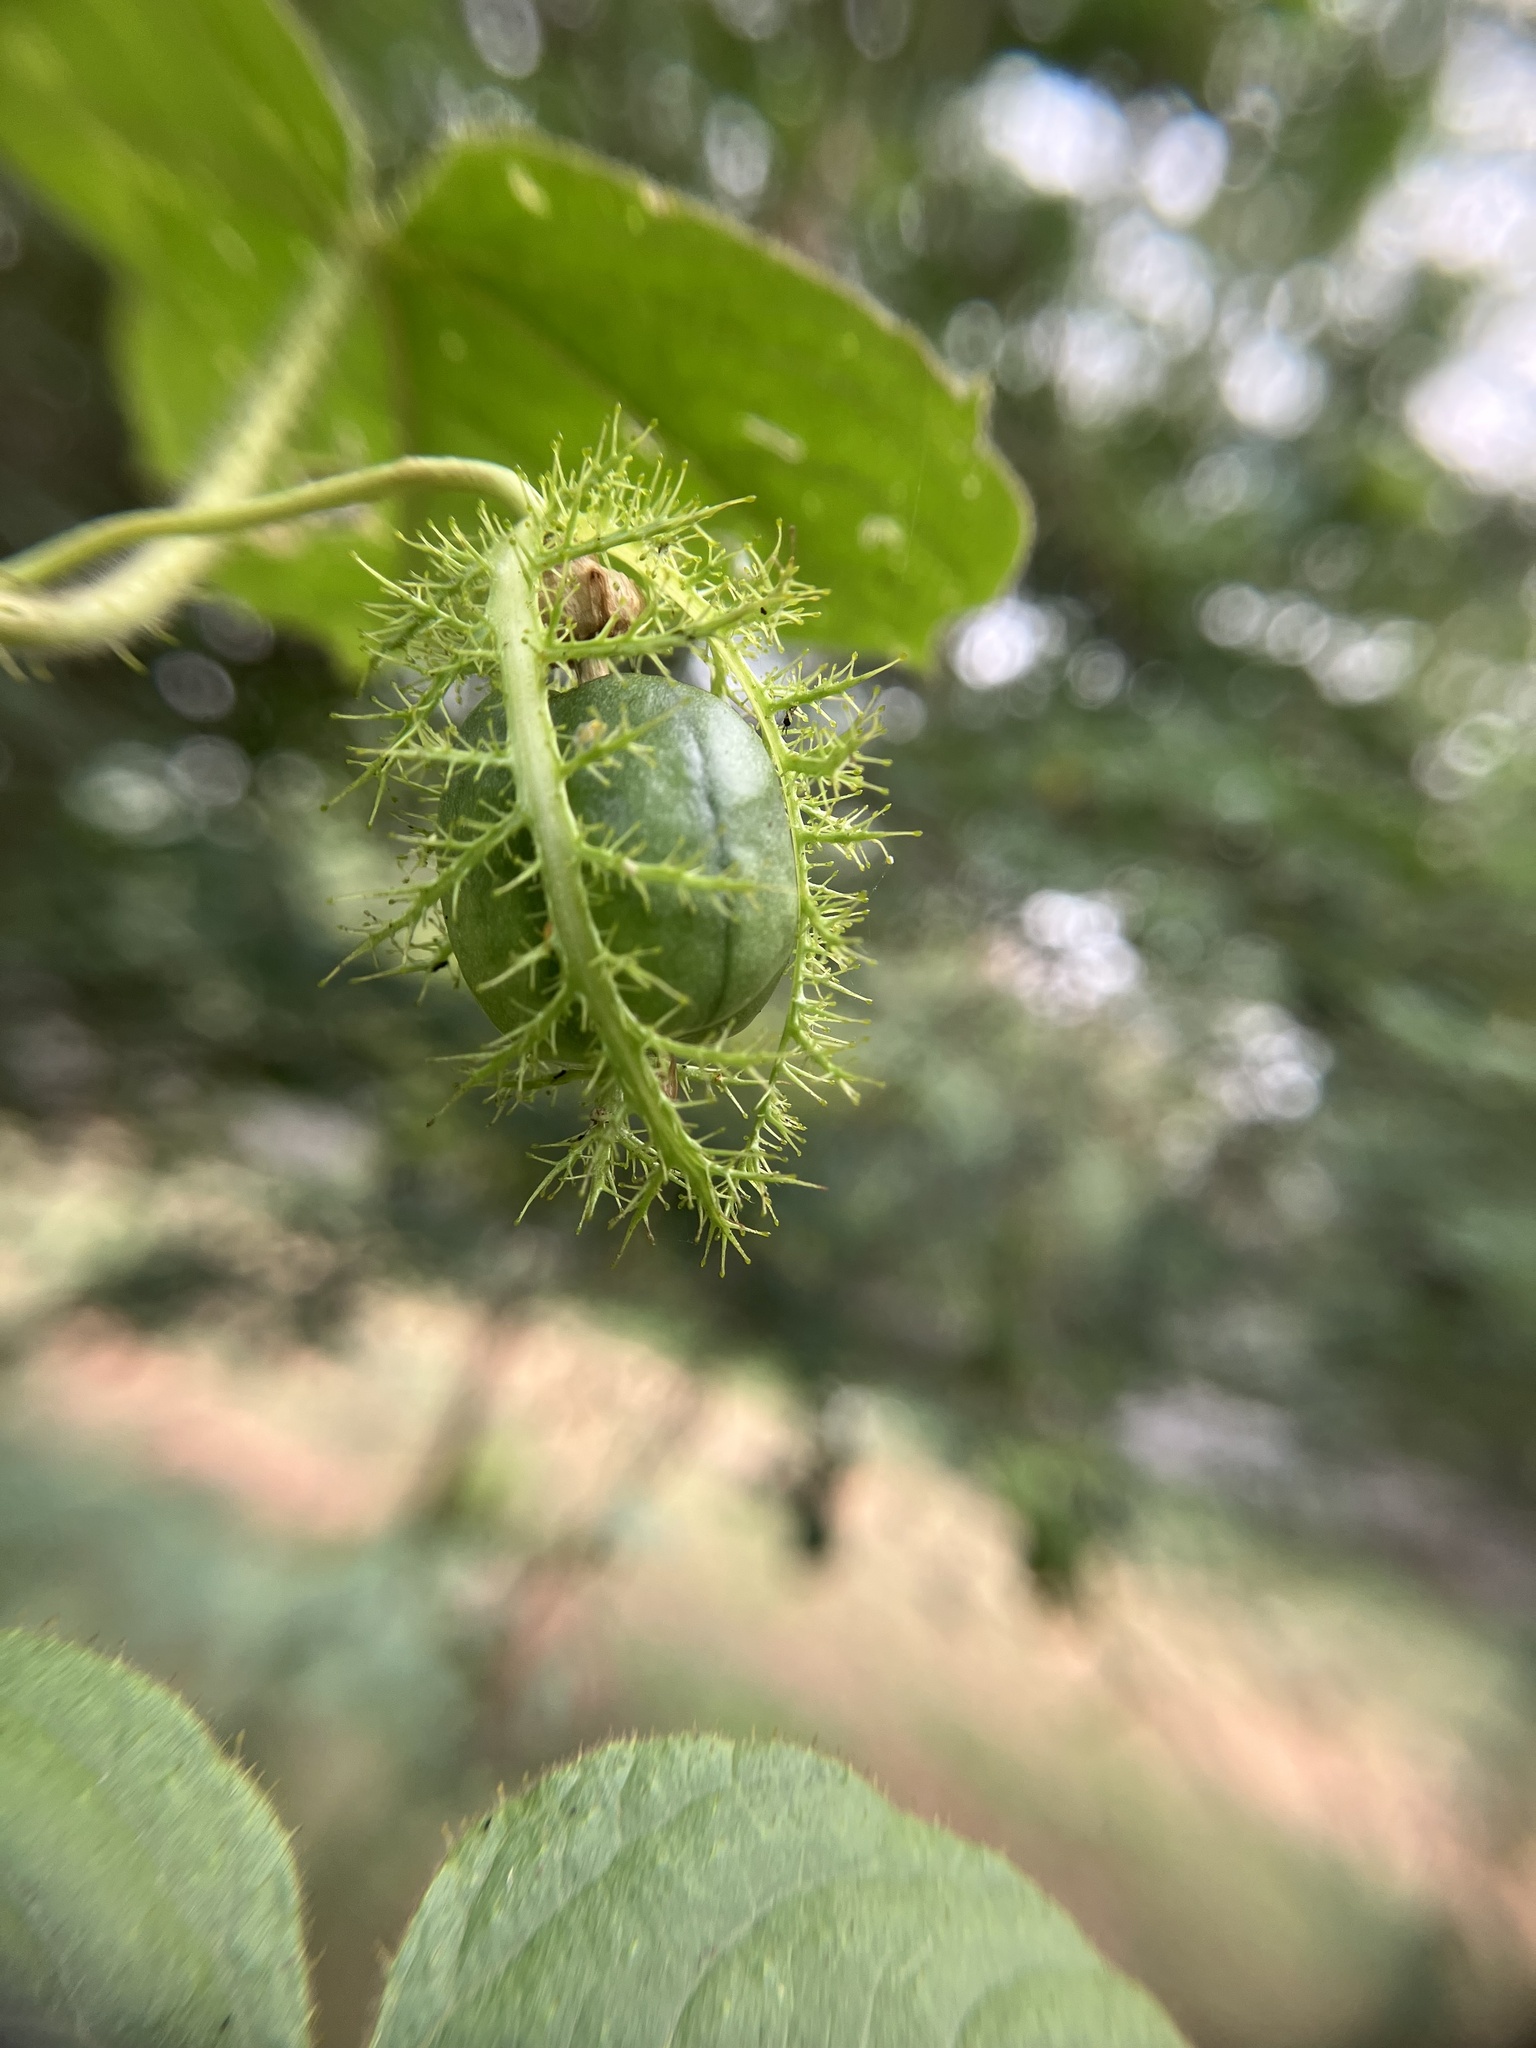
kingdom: Plantae
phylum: Tracheophyta
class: Magnoliopsida
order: Malpighiales
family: Passifloraceae
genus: Passiflora
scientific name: Passiflora vesicaria
